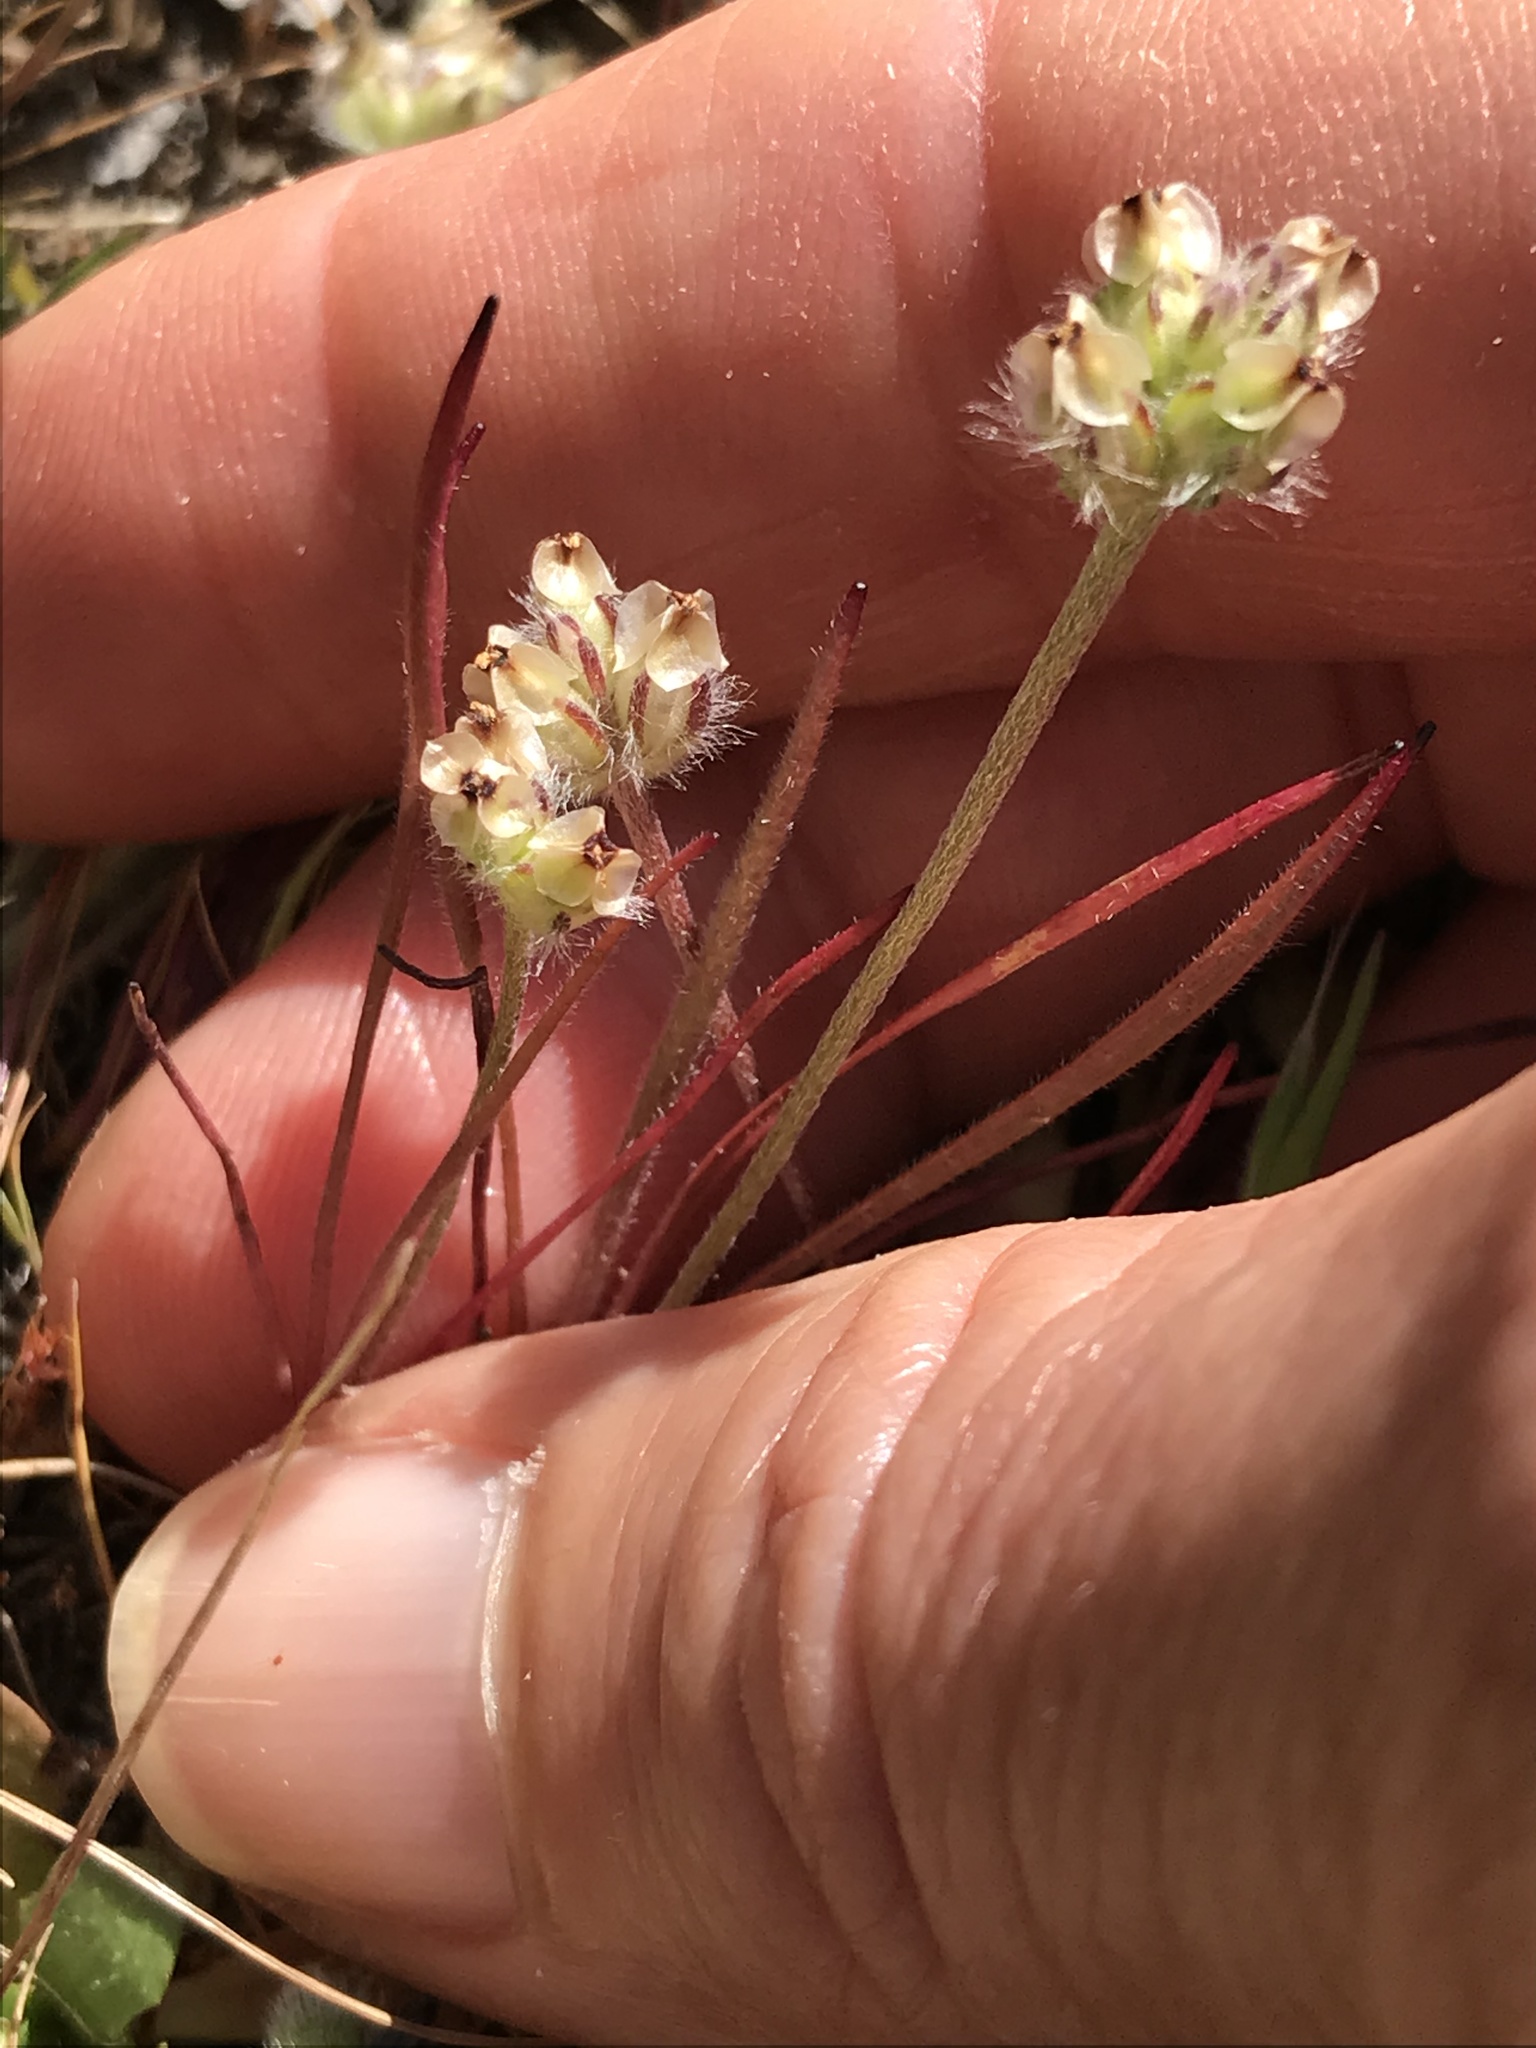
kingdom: Plantae
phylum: Tracheophyta
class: Magnoliopsida
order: Lamiales
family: Plantaginaceae
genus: Plantago
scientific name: Plantago erecta
